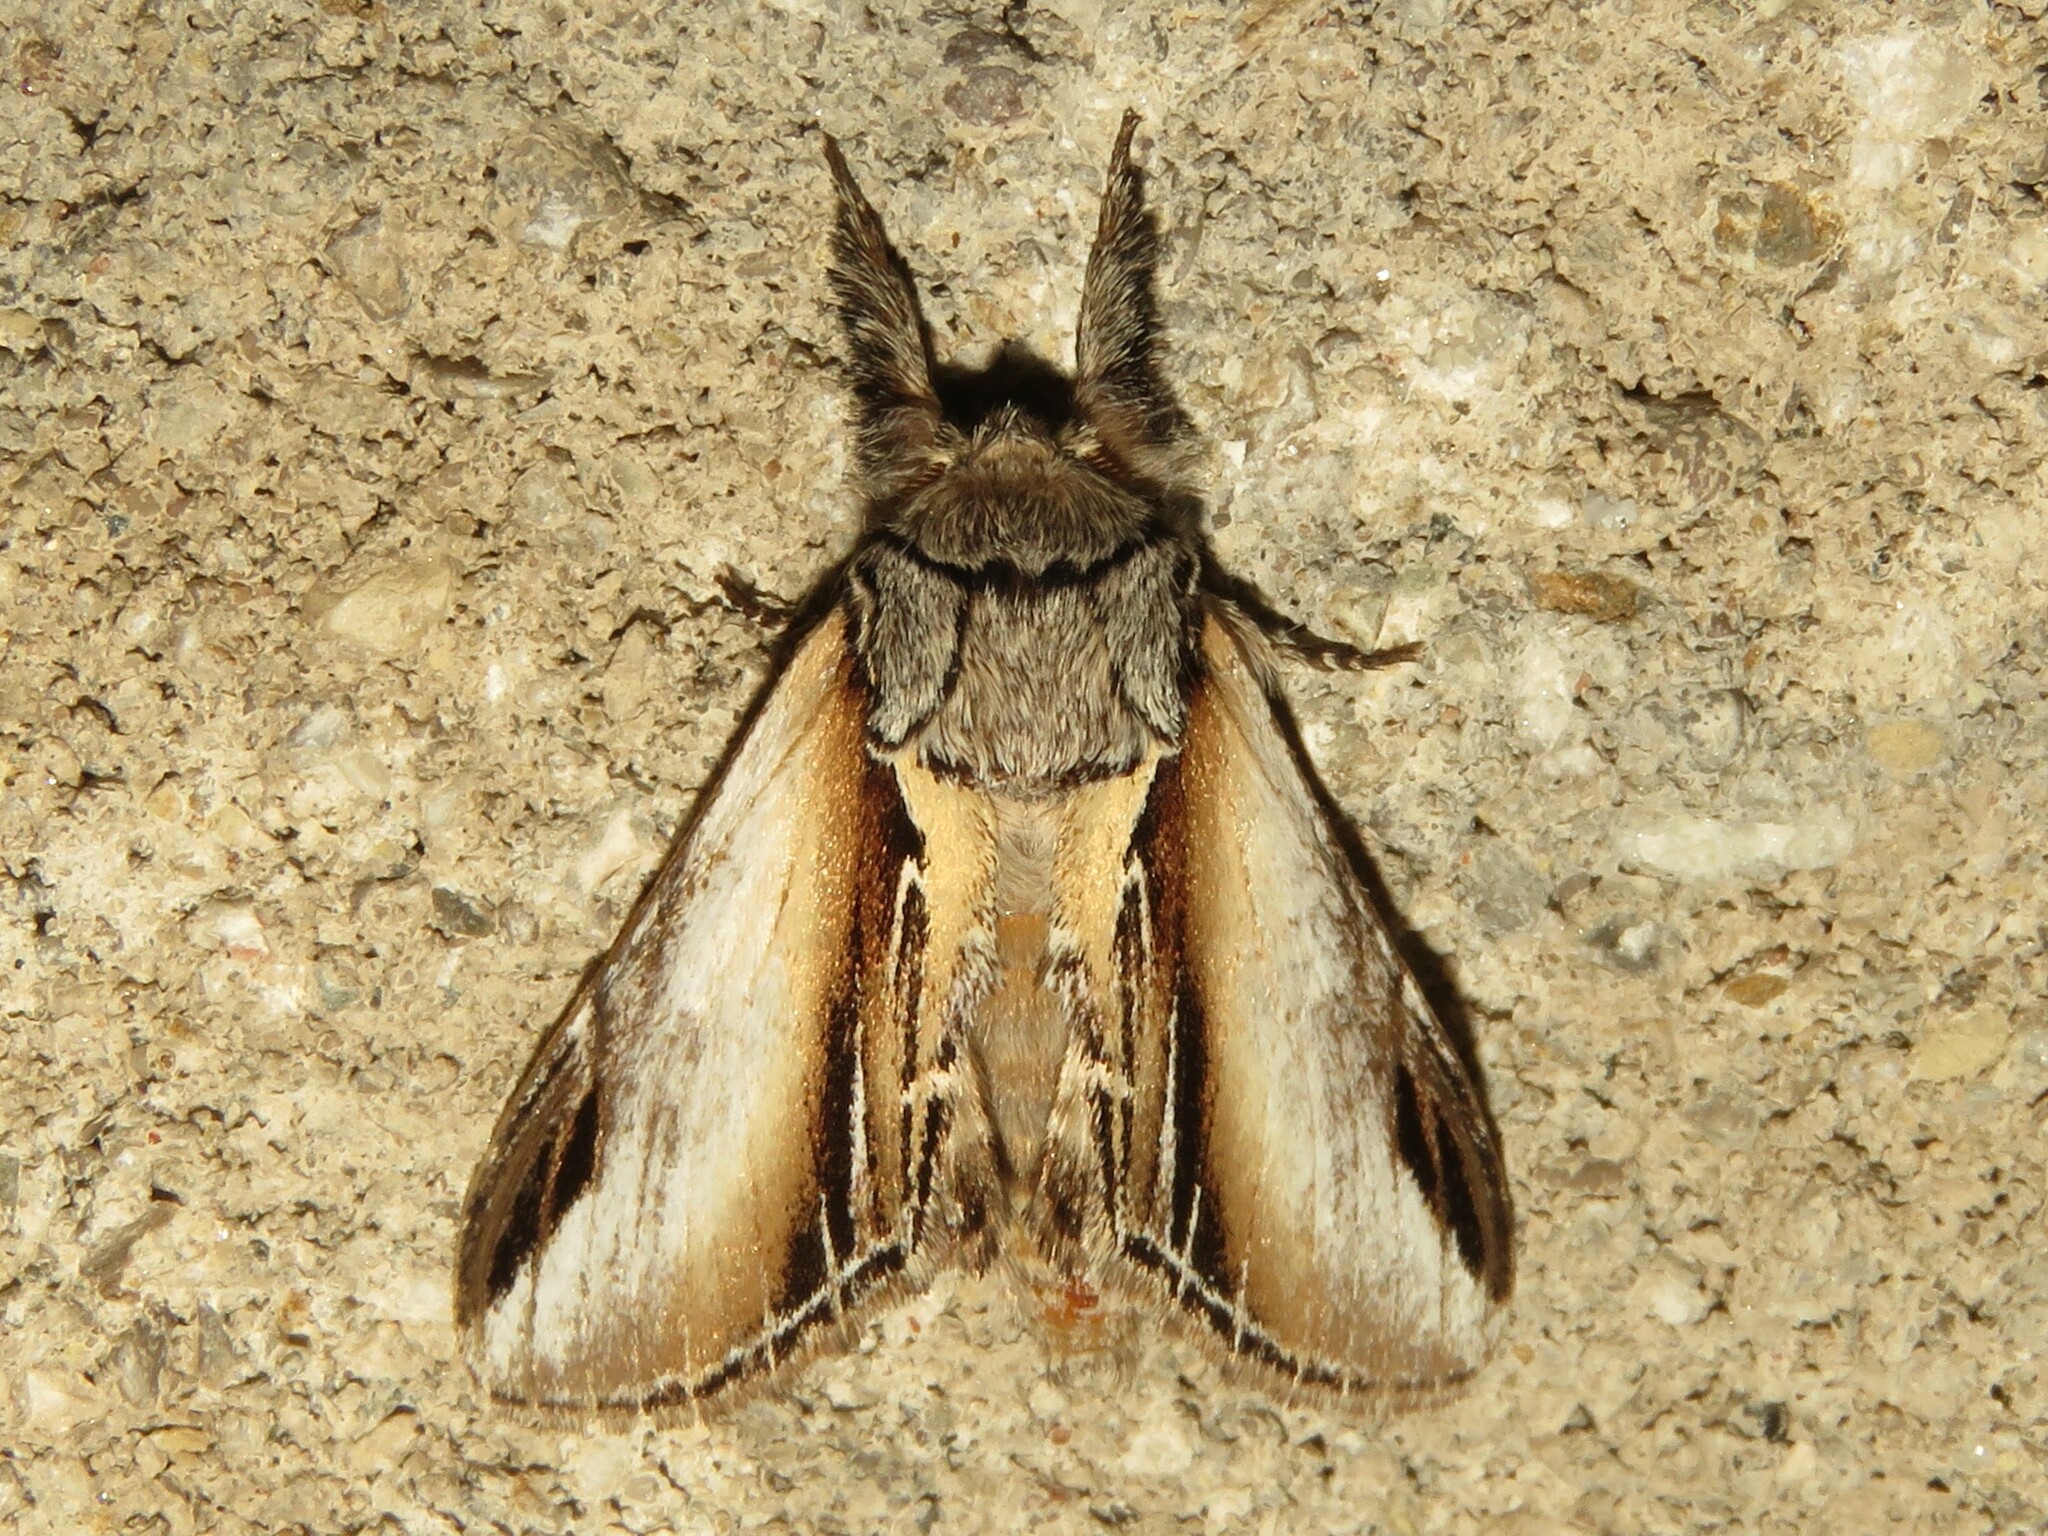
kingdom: Animalia
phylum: Arthropoda
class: Insecta
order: Lepidoptera
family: Notodontidae
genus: Pheosia
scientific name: Pheosia rimosa
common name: Black-rimmed prominent
